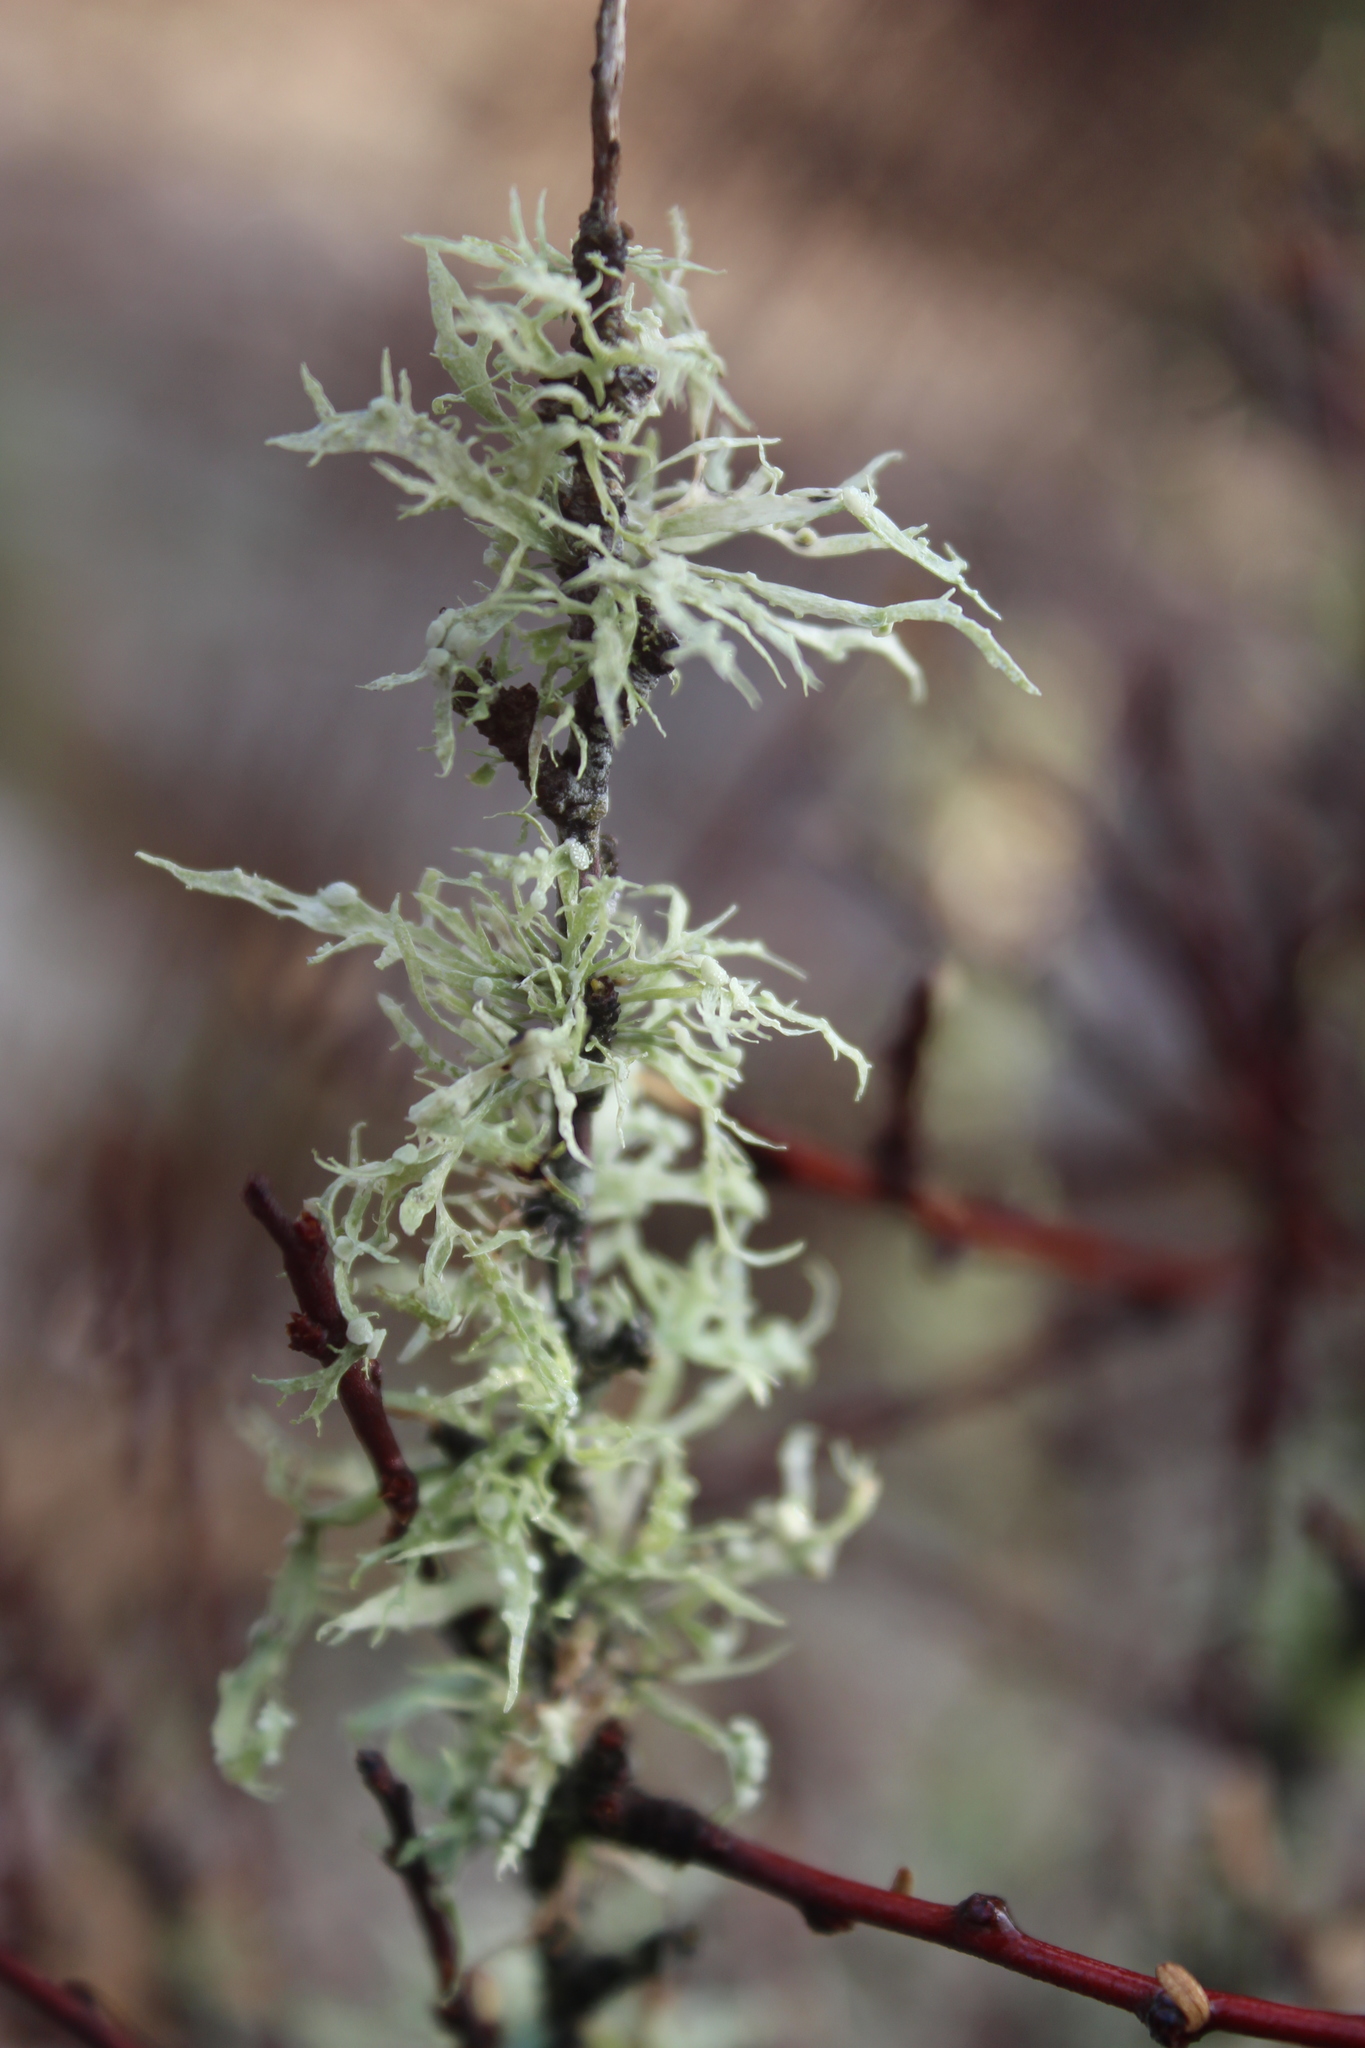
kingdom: Fungi
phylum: Ascomycota
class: Lecanoromycetes
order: Lecanorales
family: Ramalinaceae
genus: Ramalina
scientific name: Ramalina celastri
